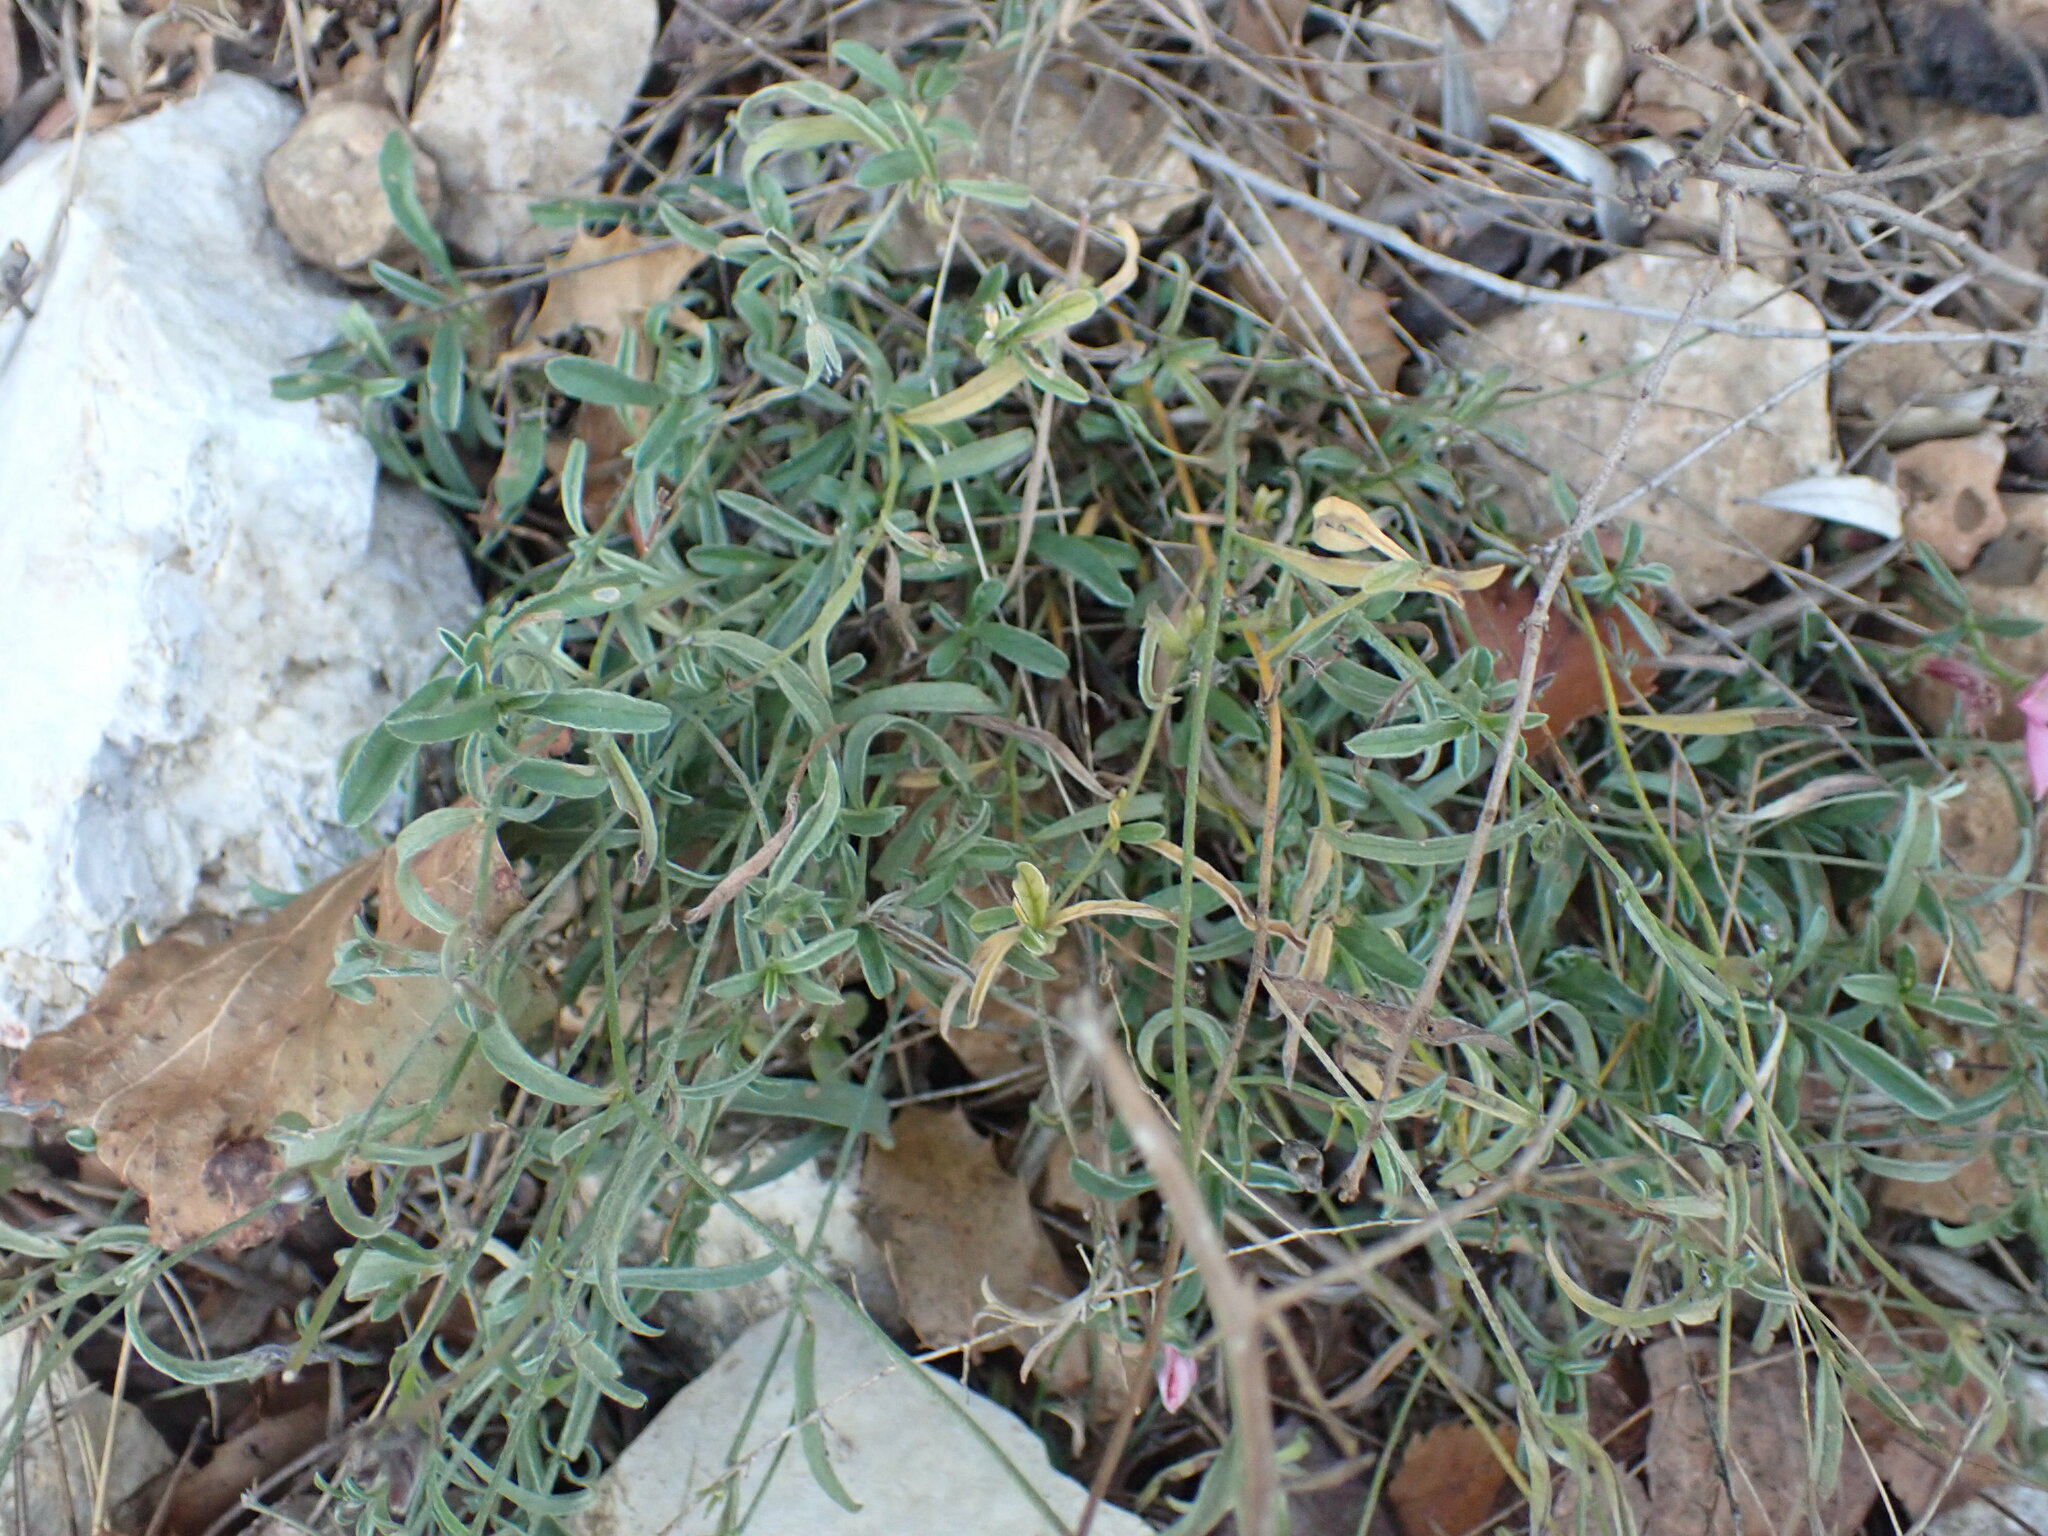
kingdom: Plantae
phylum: Tracheophyta
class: Magnoliopsida
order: Solanales
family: Convolvulaceae
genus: Convolvulus
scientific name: Convolvulus cantabrica
